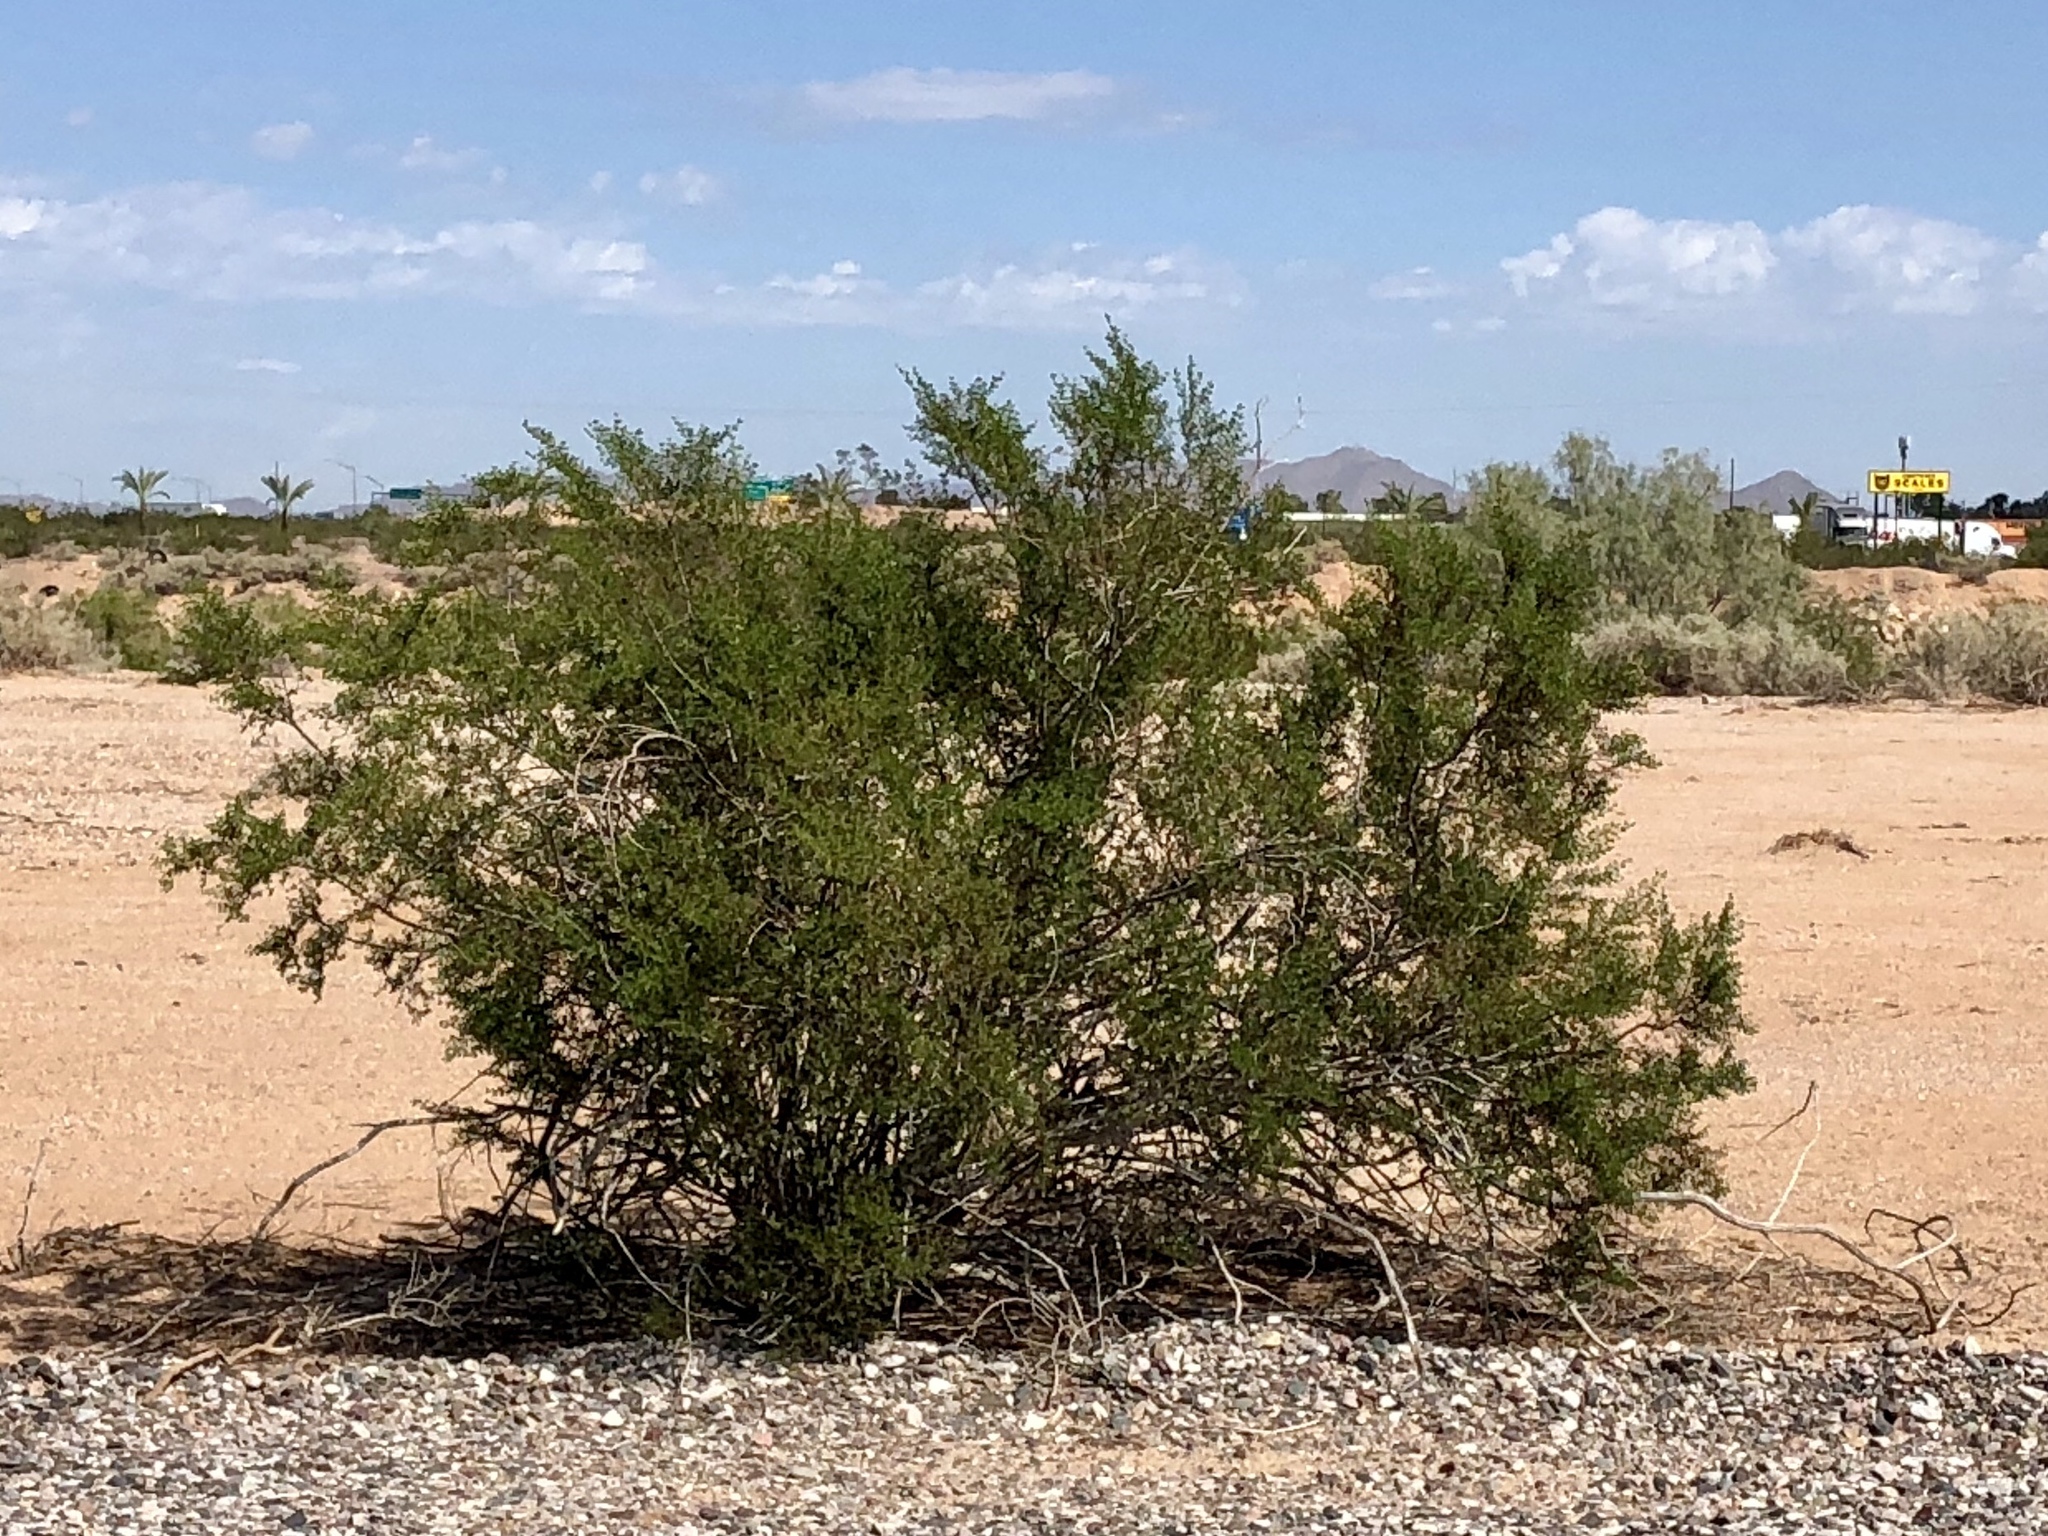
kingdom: Plantae
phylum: Tracheophyta
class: Magnoliopsida
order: Zygophyllales
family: Zygophyllaceae
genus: Larrea
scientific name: Larrea tridentata
